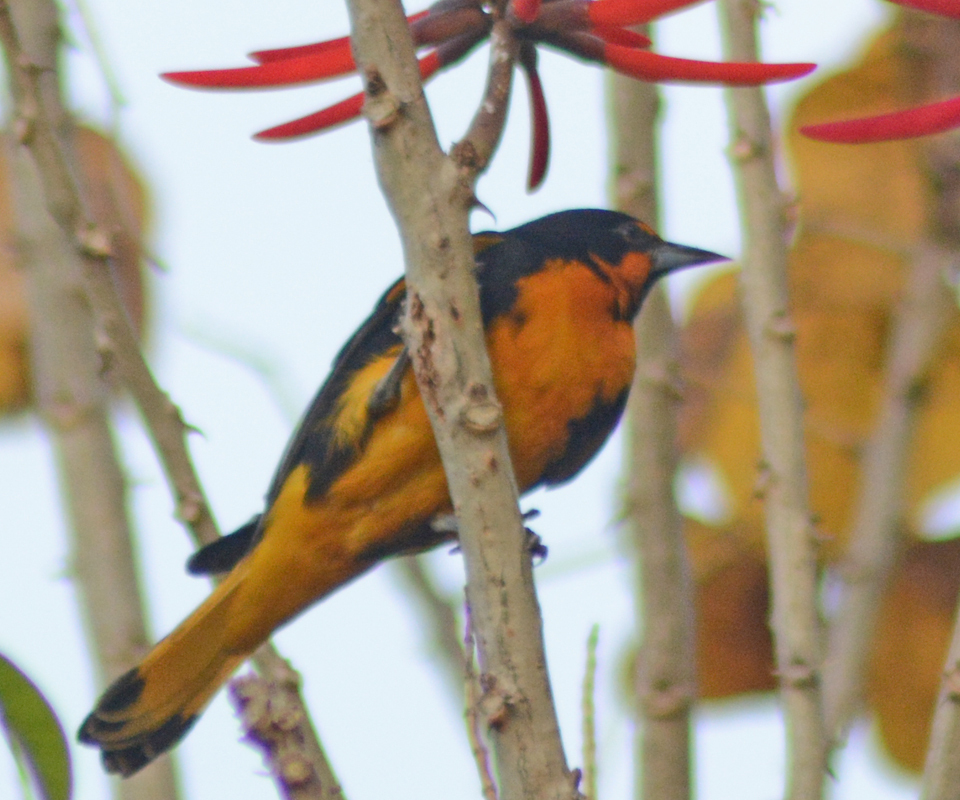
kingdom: Animalia
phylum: Chordata
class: Aves
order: Passeriformes
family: Icteridae
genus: Icterus
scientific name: Icterus abeillei
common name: Black-backed oriole
